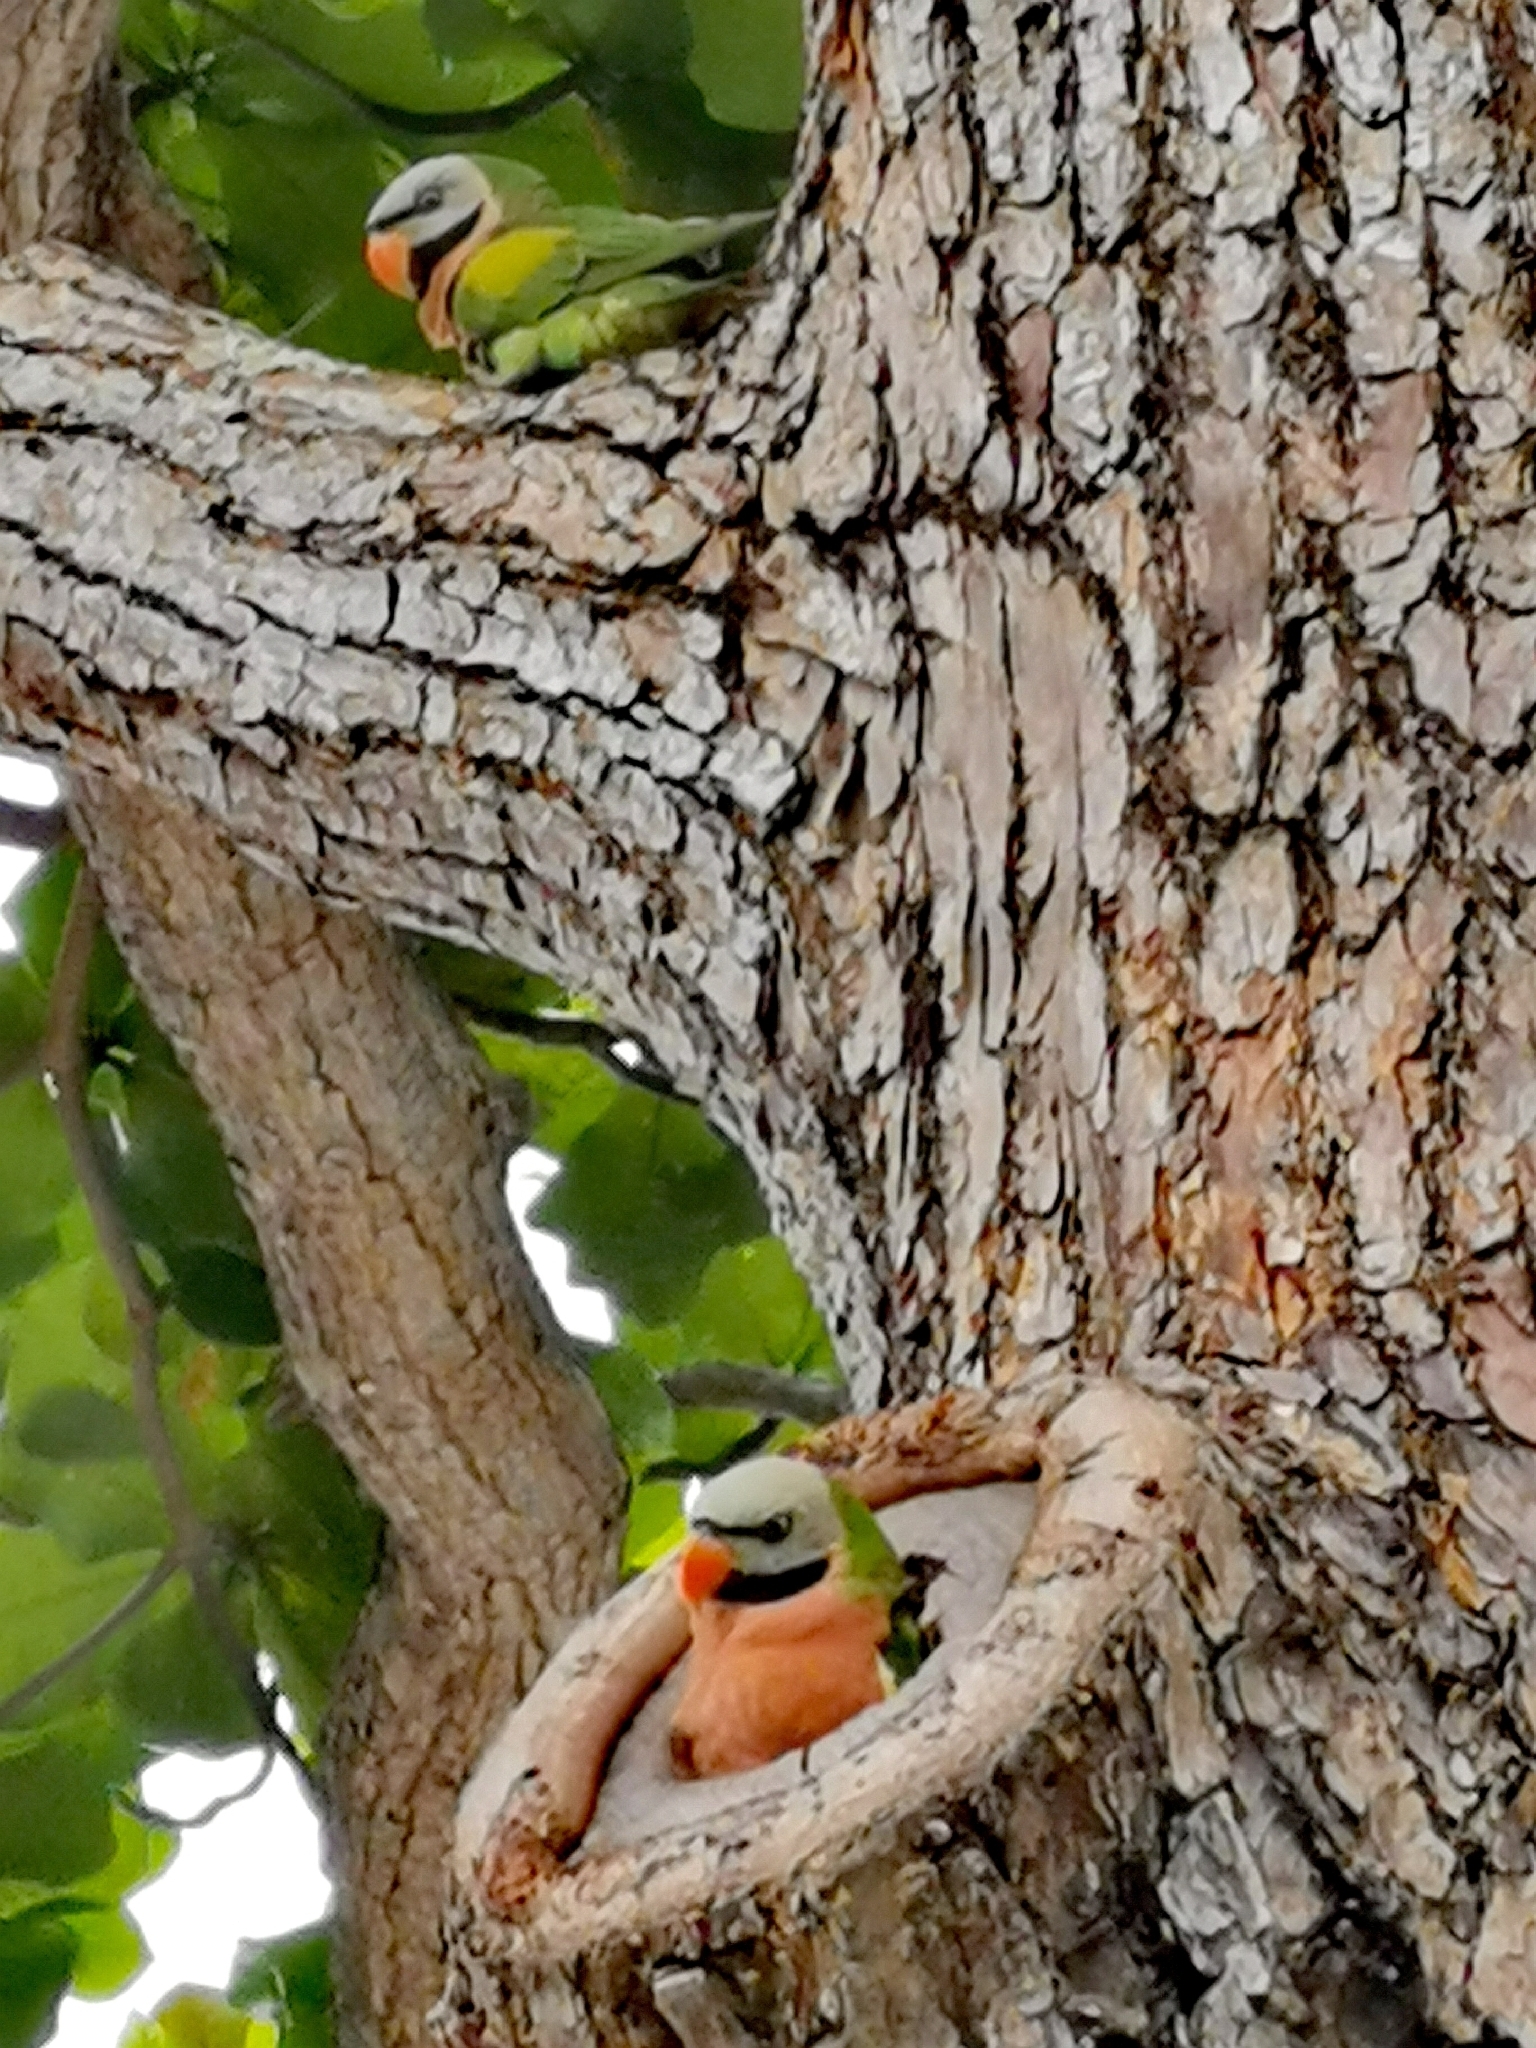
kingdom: Animalia
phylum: Chordata
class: Aves
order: Psittaciformes
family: Psittacidae
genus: Psittacula
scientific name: Psittacula alexandri
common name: Red-breasted parakeet
